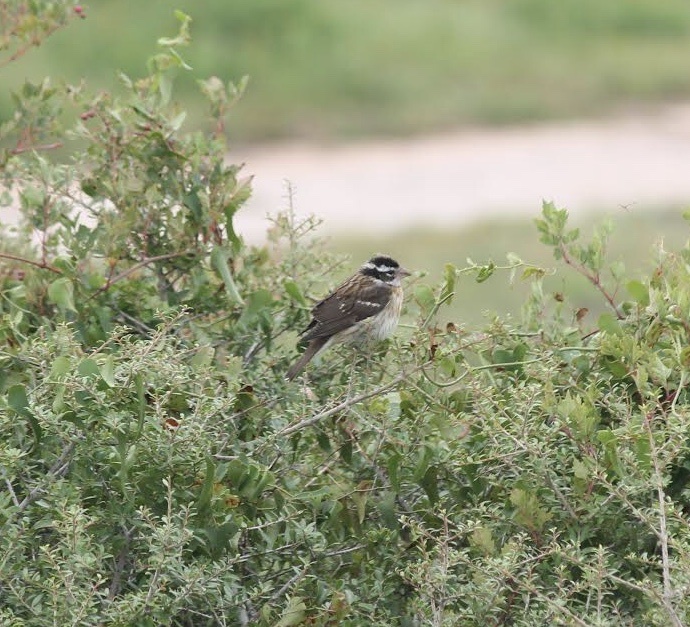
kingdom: Animalia
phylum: Chordata
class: Aves
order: Passeriformes
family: Cardinalidae
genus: Pheucticus
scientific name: Pheucticus ludovicianus
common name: Rose-breasted grosbeak
